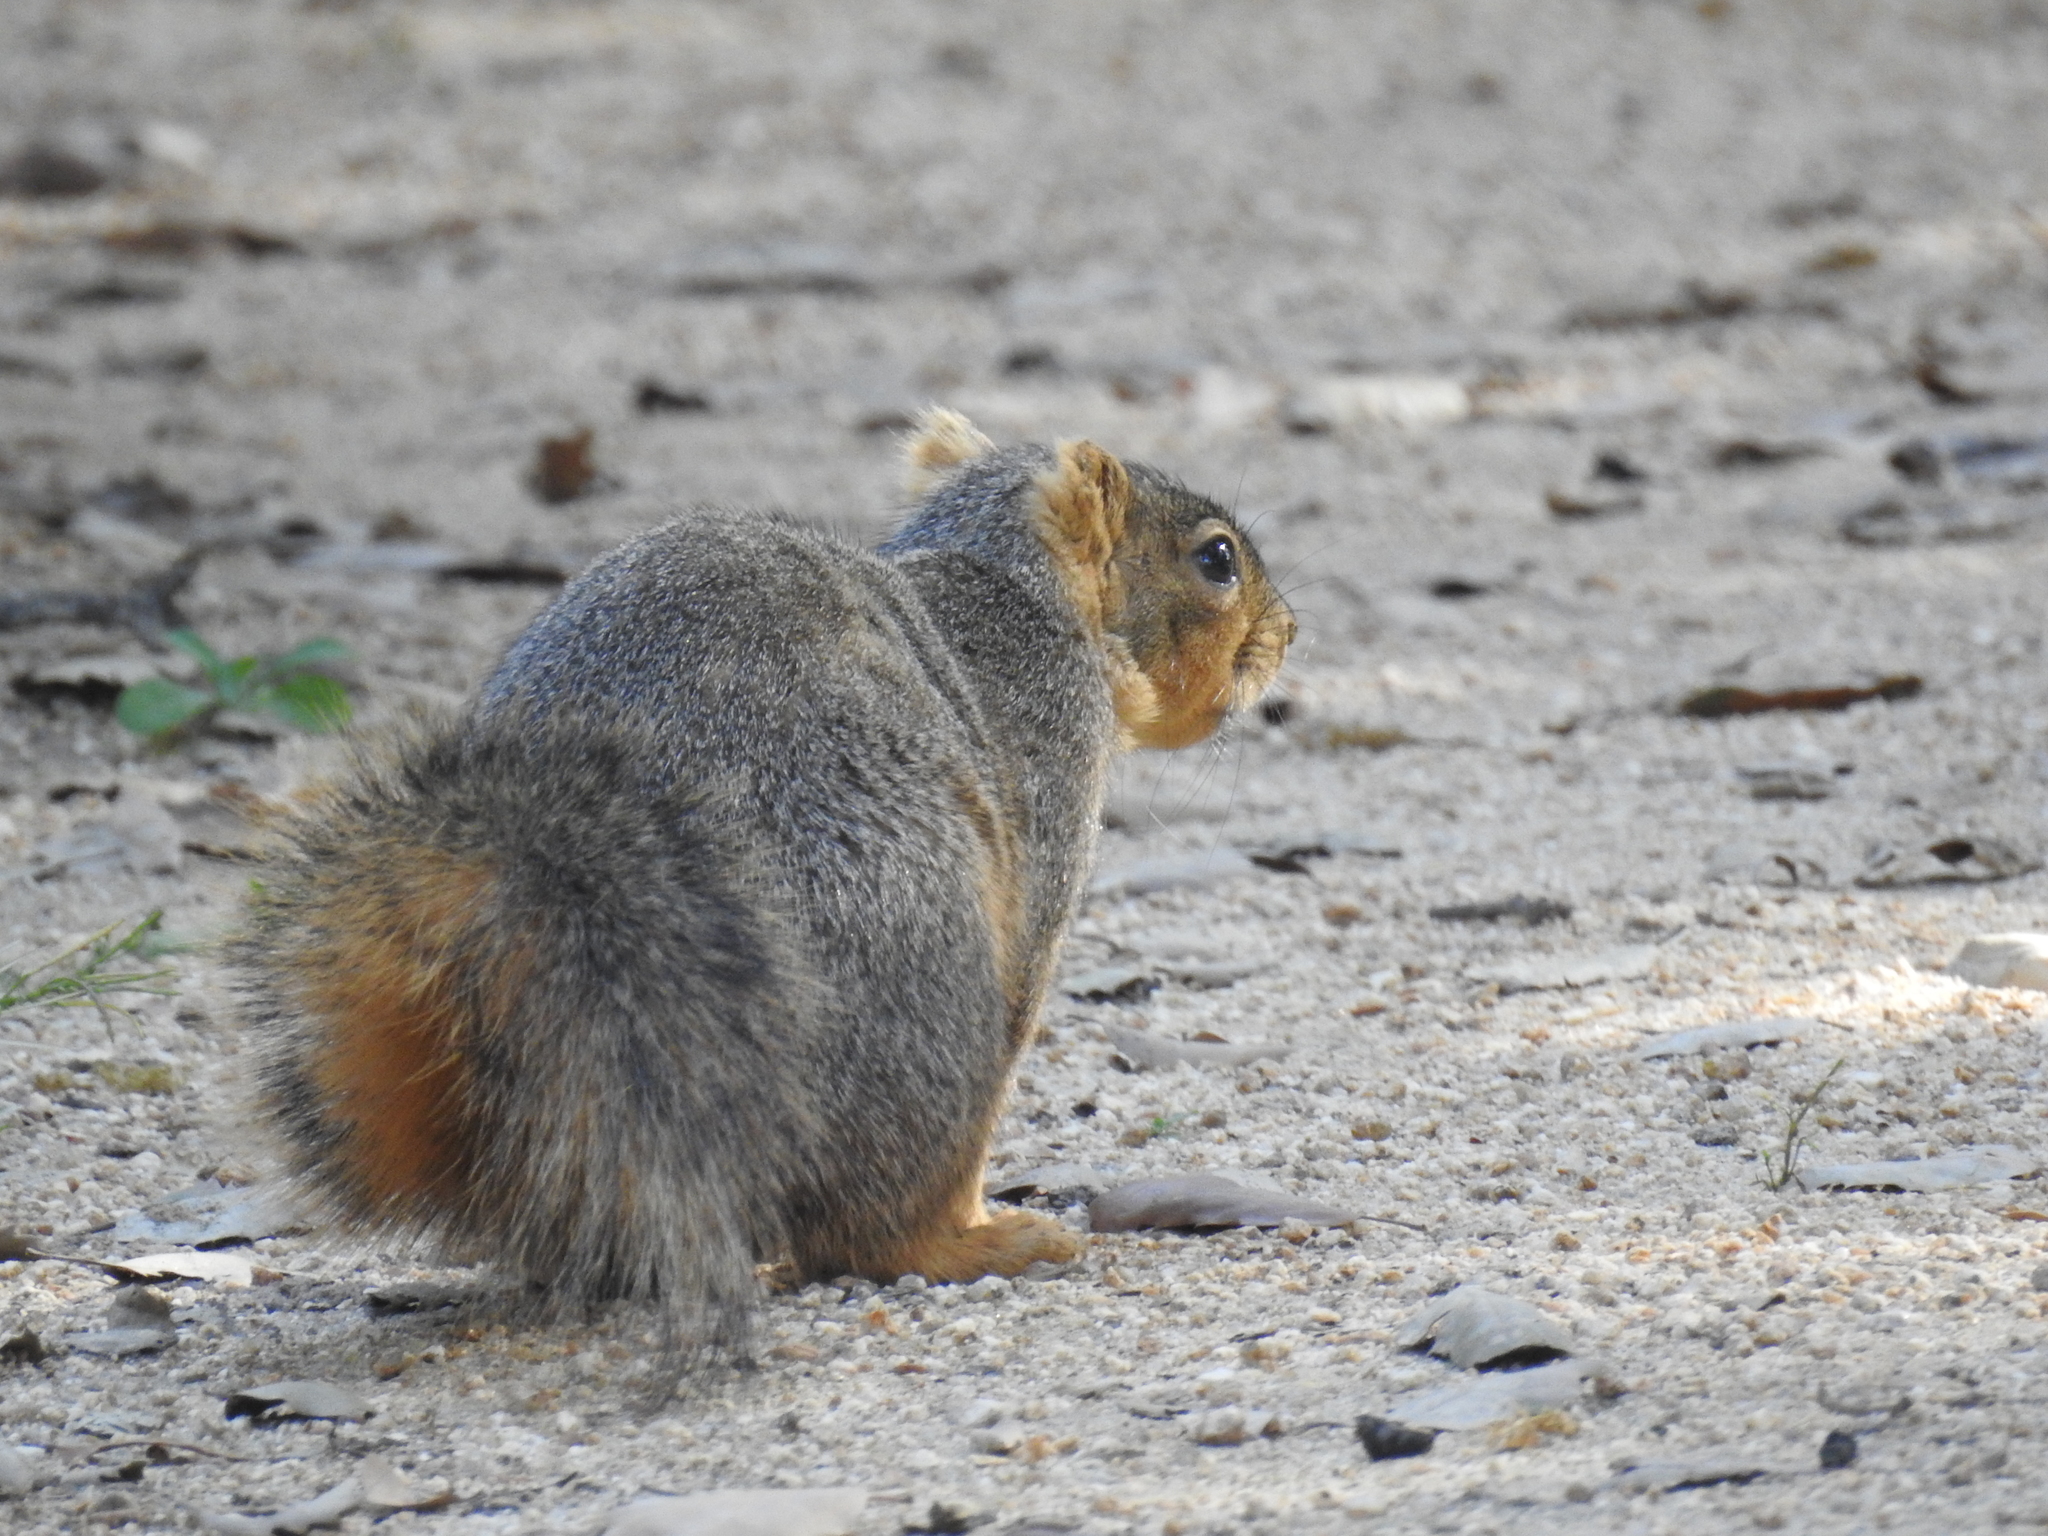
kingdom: Animalia
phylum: Chordata
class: Mammalia
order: Rodentia
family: Sciuridae
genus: Sciurus
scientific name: Sciurus niger
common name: Fox squirrel
